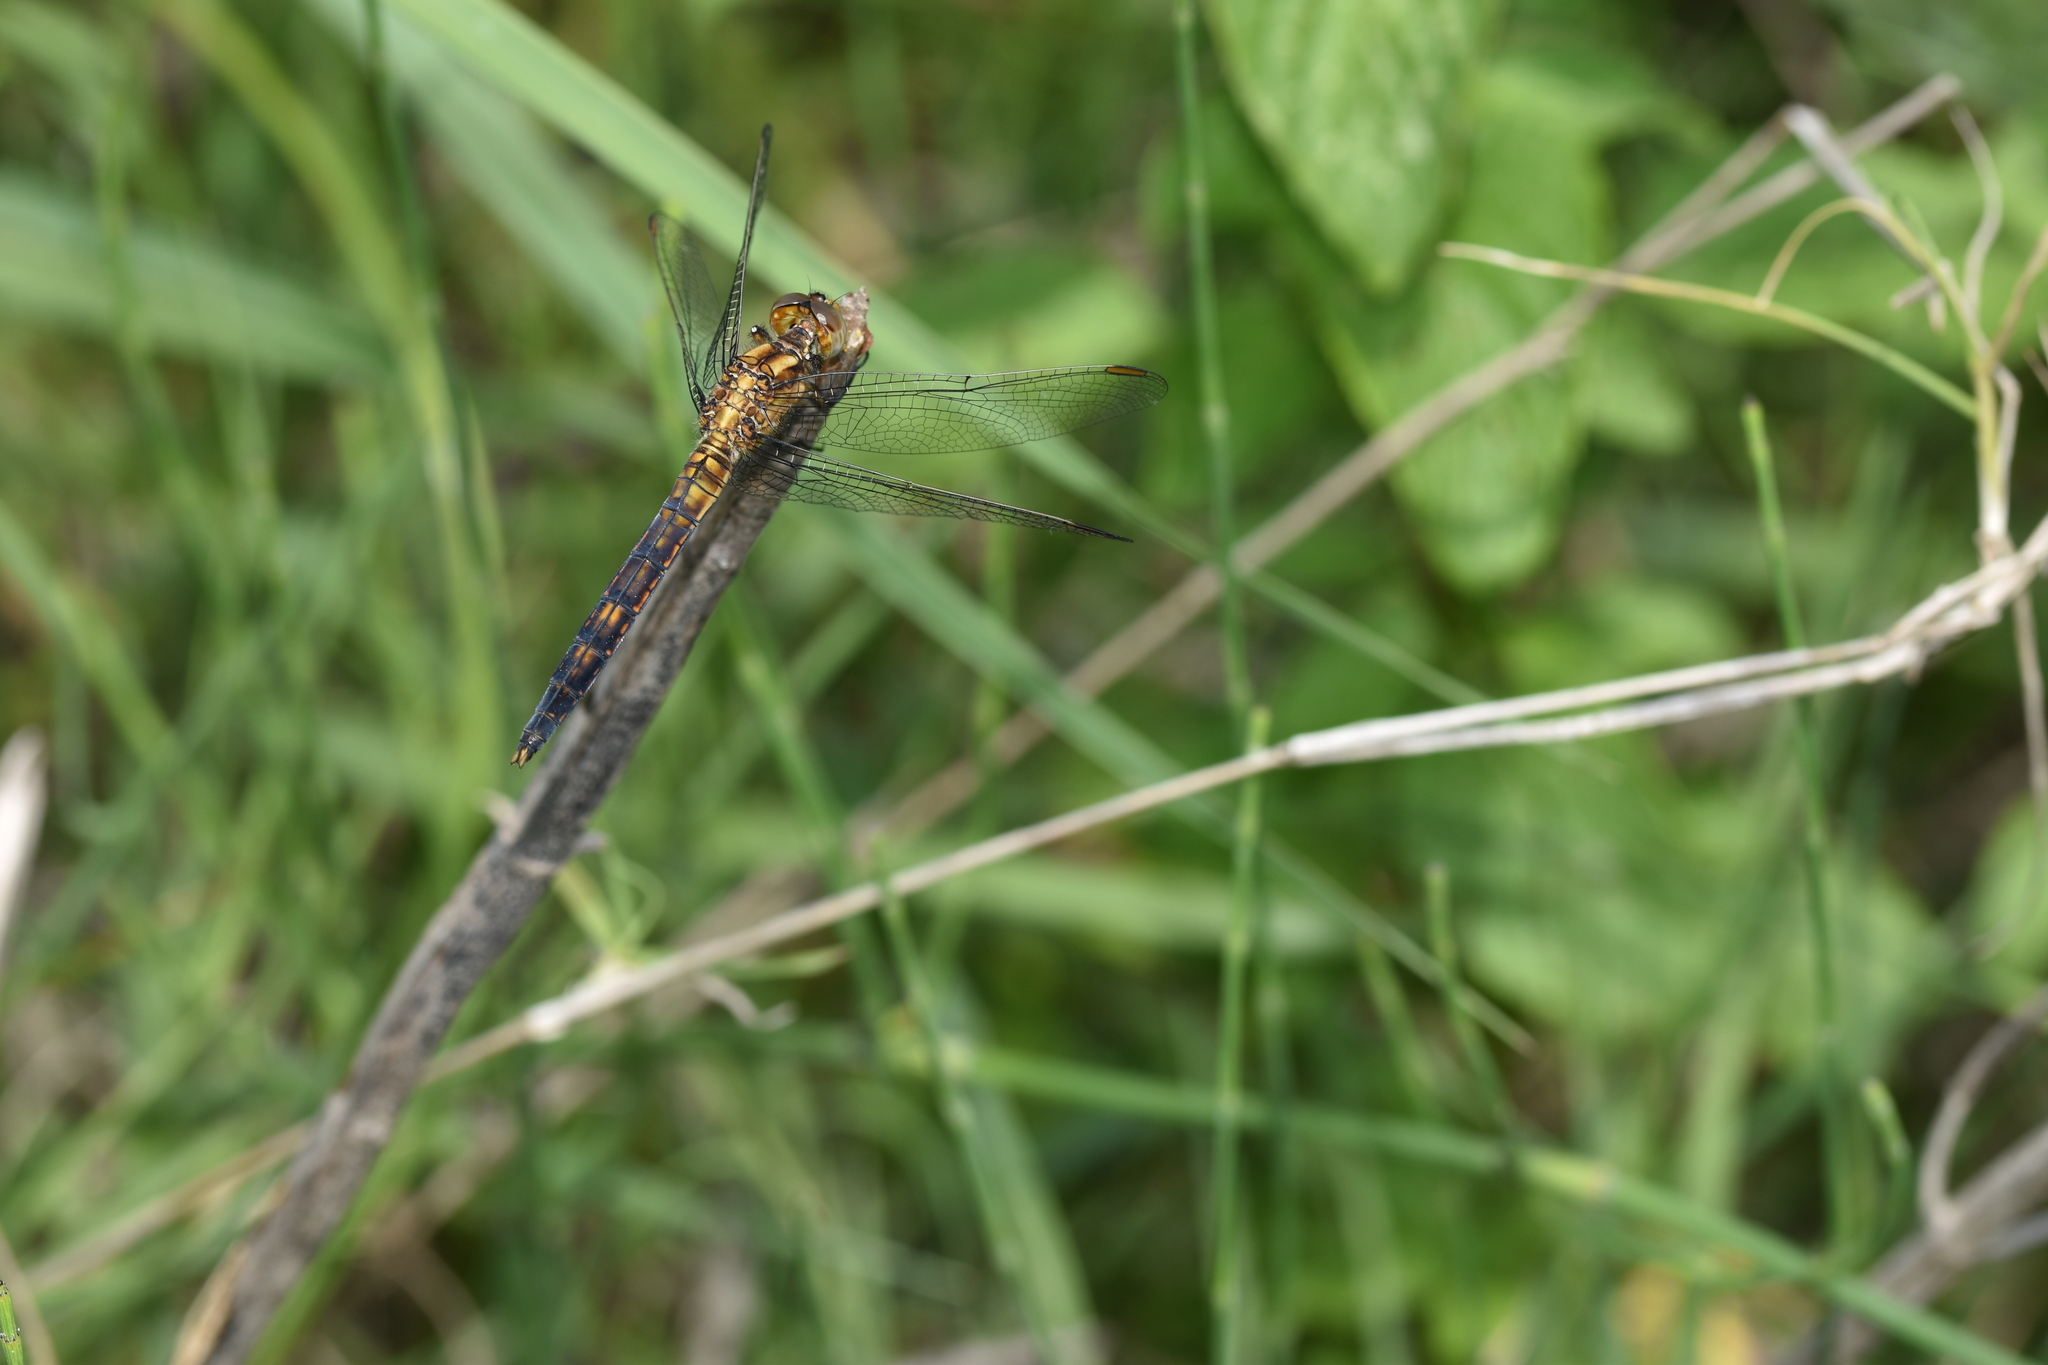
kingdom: Animalia
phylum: Arthropoda
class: Insecta
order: Odonata
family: Libellulidae
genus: Orthetrum
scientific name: Orthetrum coerulescens
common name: Keeled skimmer
